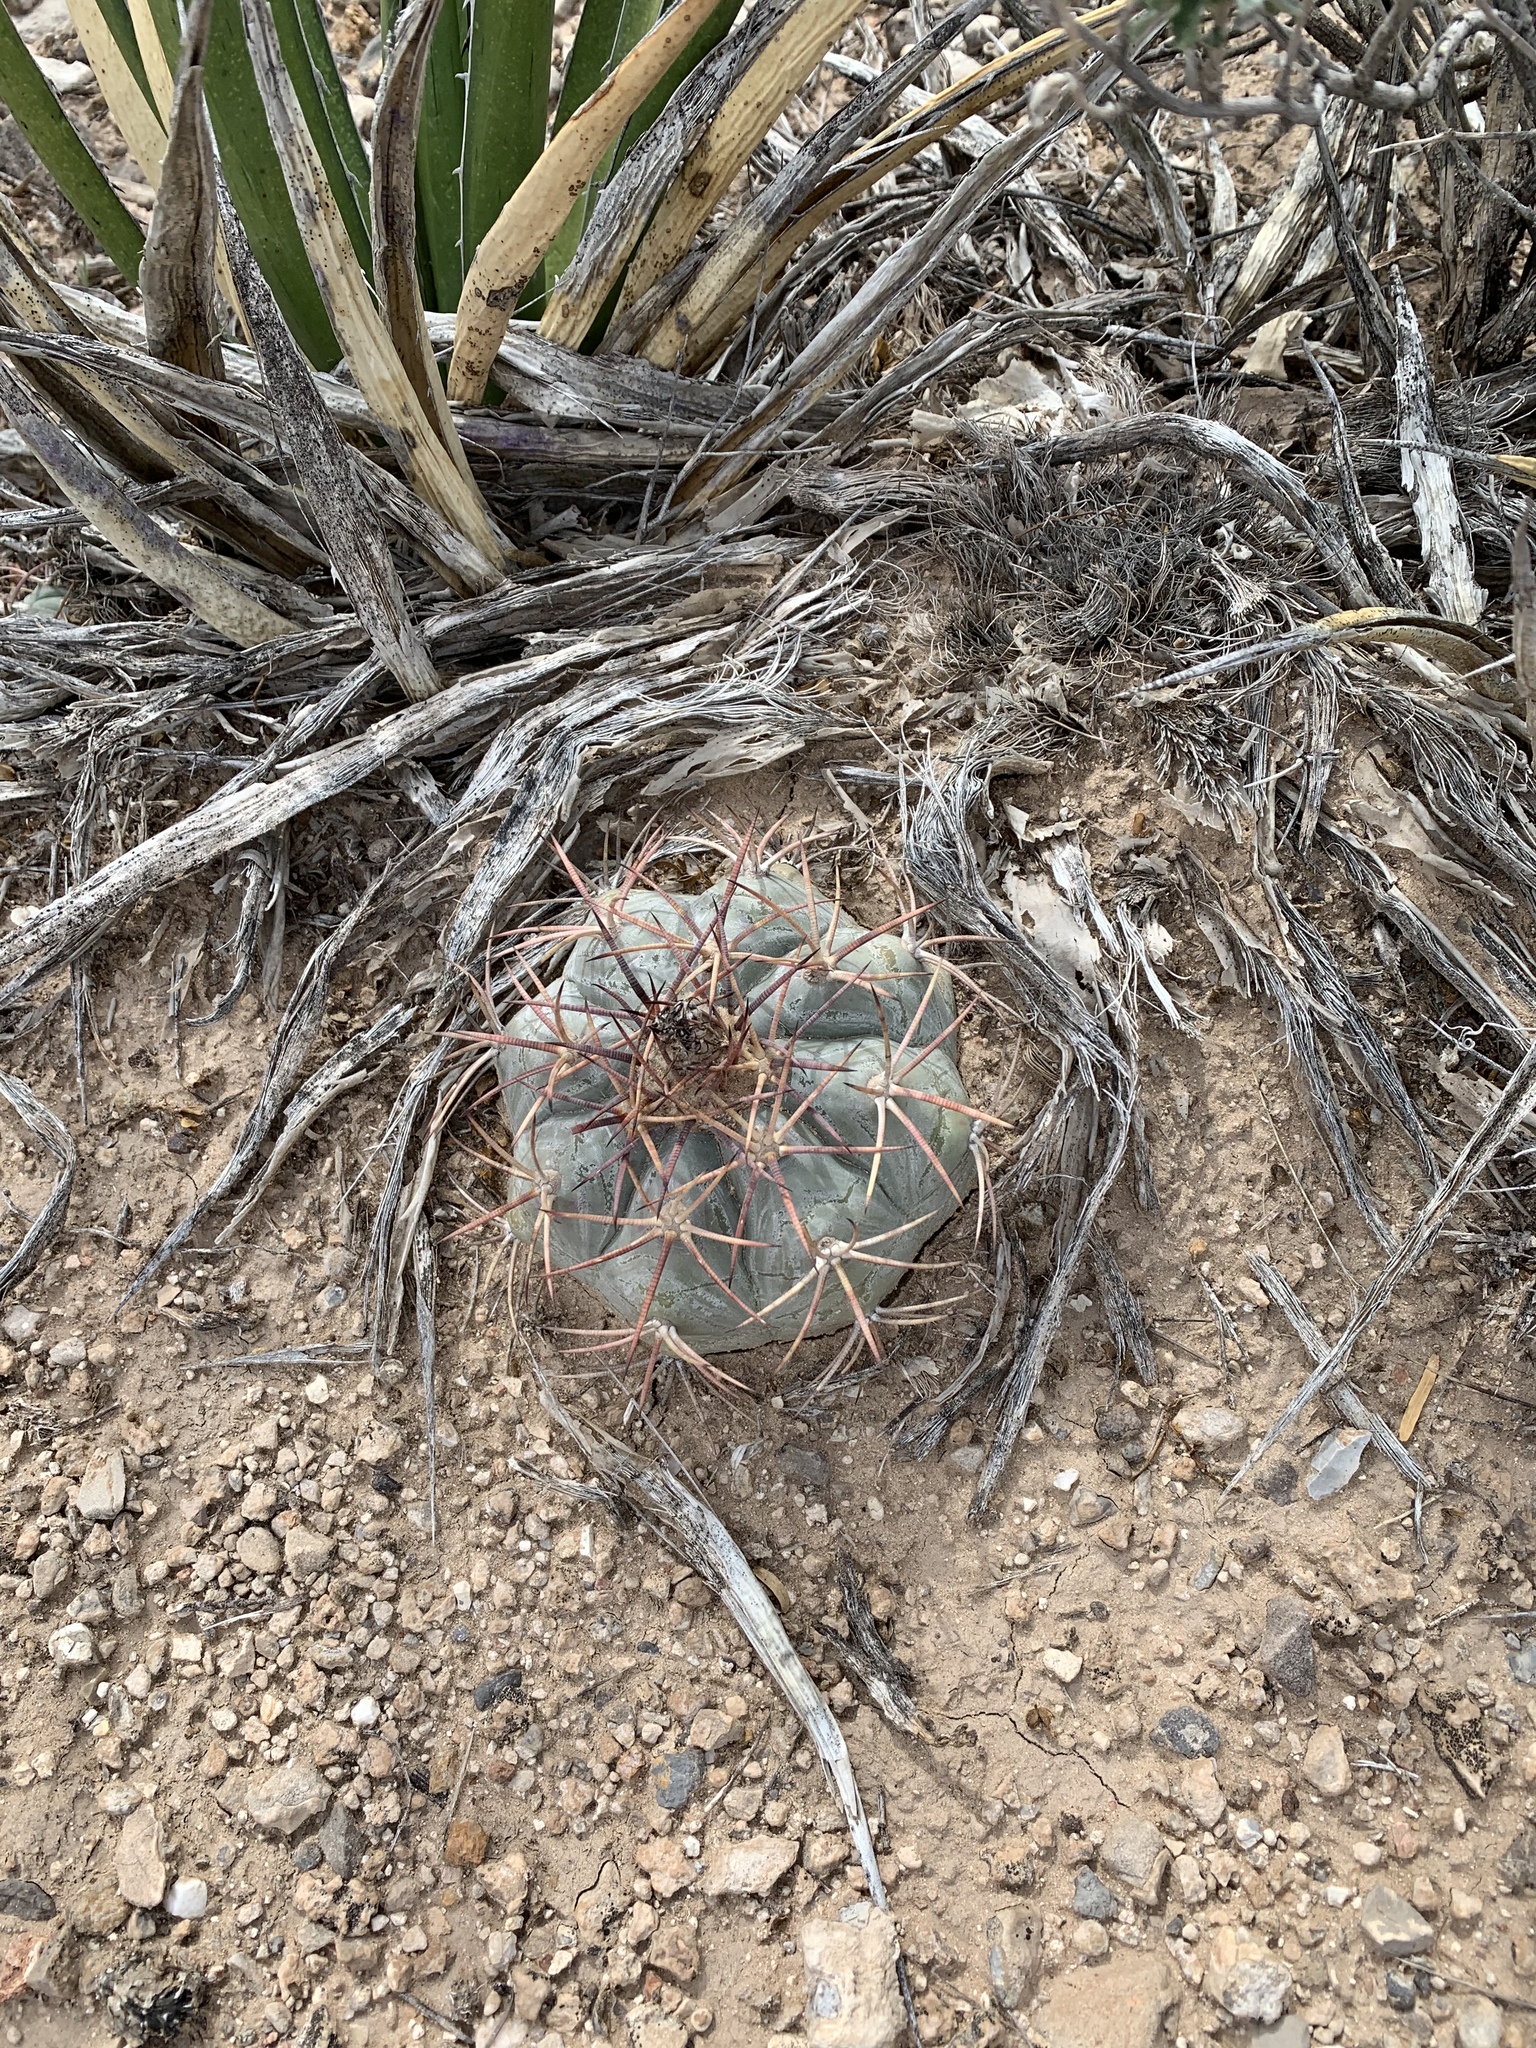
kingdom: Plantae
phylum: Tracheophyta
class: Magnoliopsida
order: Caryophyllales
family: Cactaceae
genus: Echinocactus
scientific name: Echinocactus horizonthalonius
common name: Devilshead
